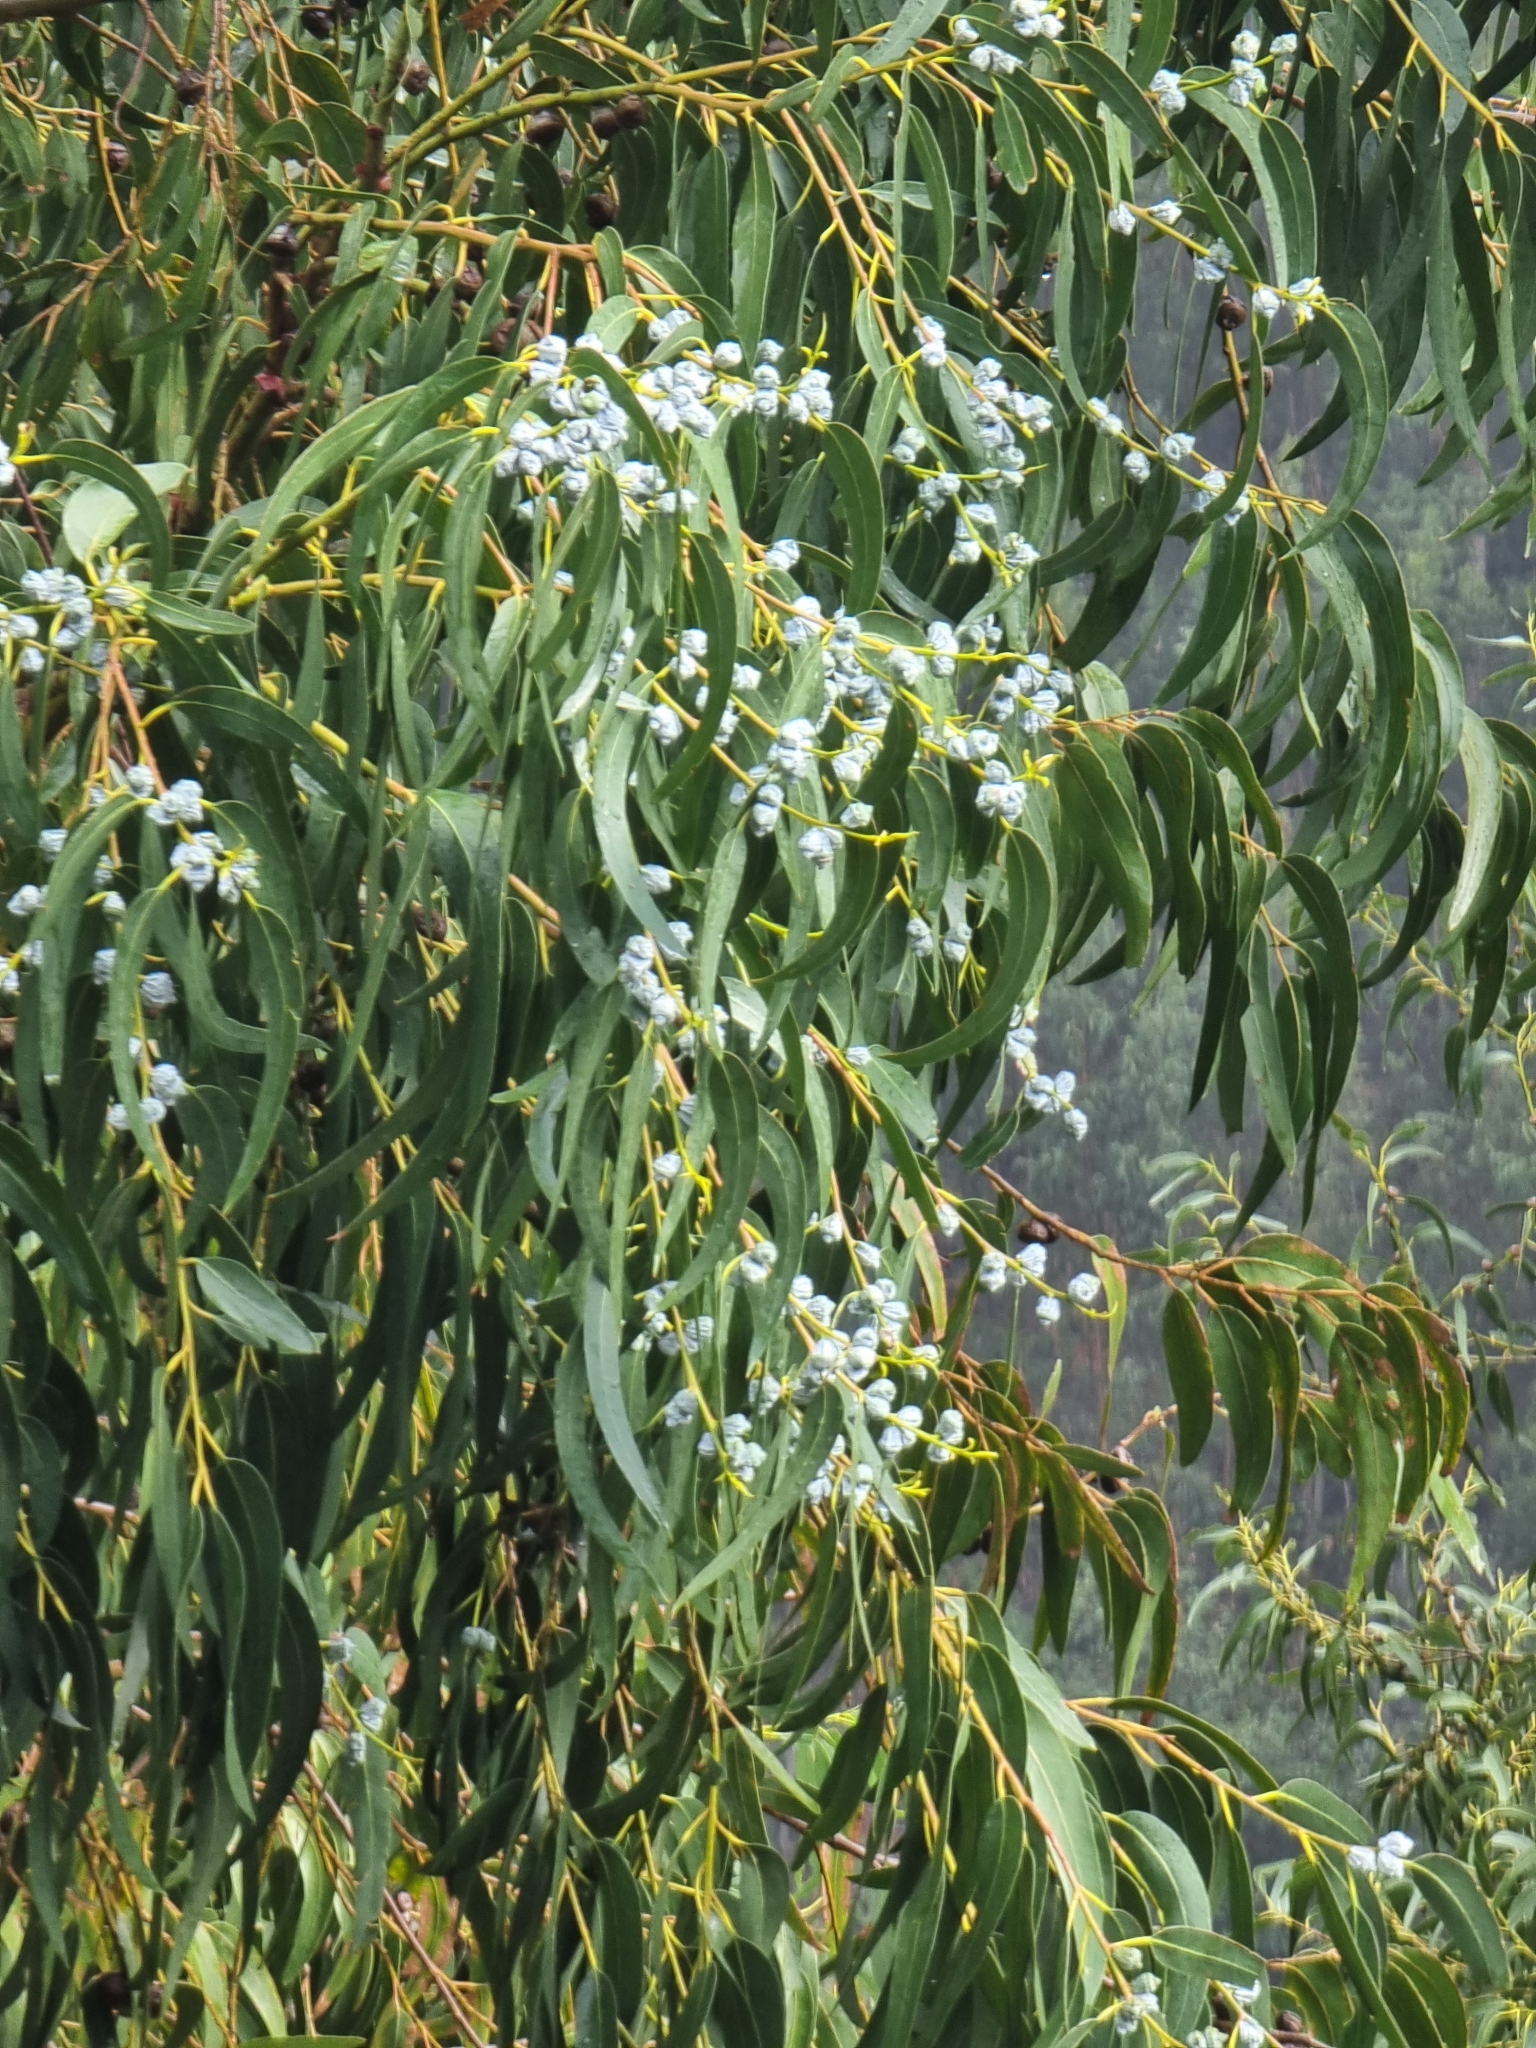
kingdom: Plantae
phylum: Tracheophyta
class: Magnoliopsida
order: Myrtales
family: Myrtaceae
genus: Eucalyptus
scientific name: Eucalyptus globulus
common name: Southern blue-gum
